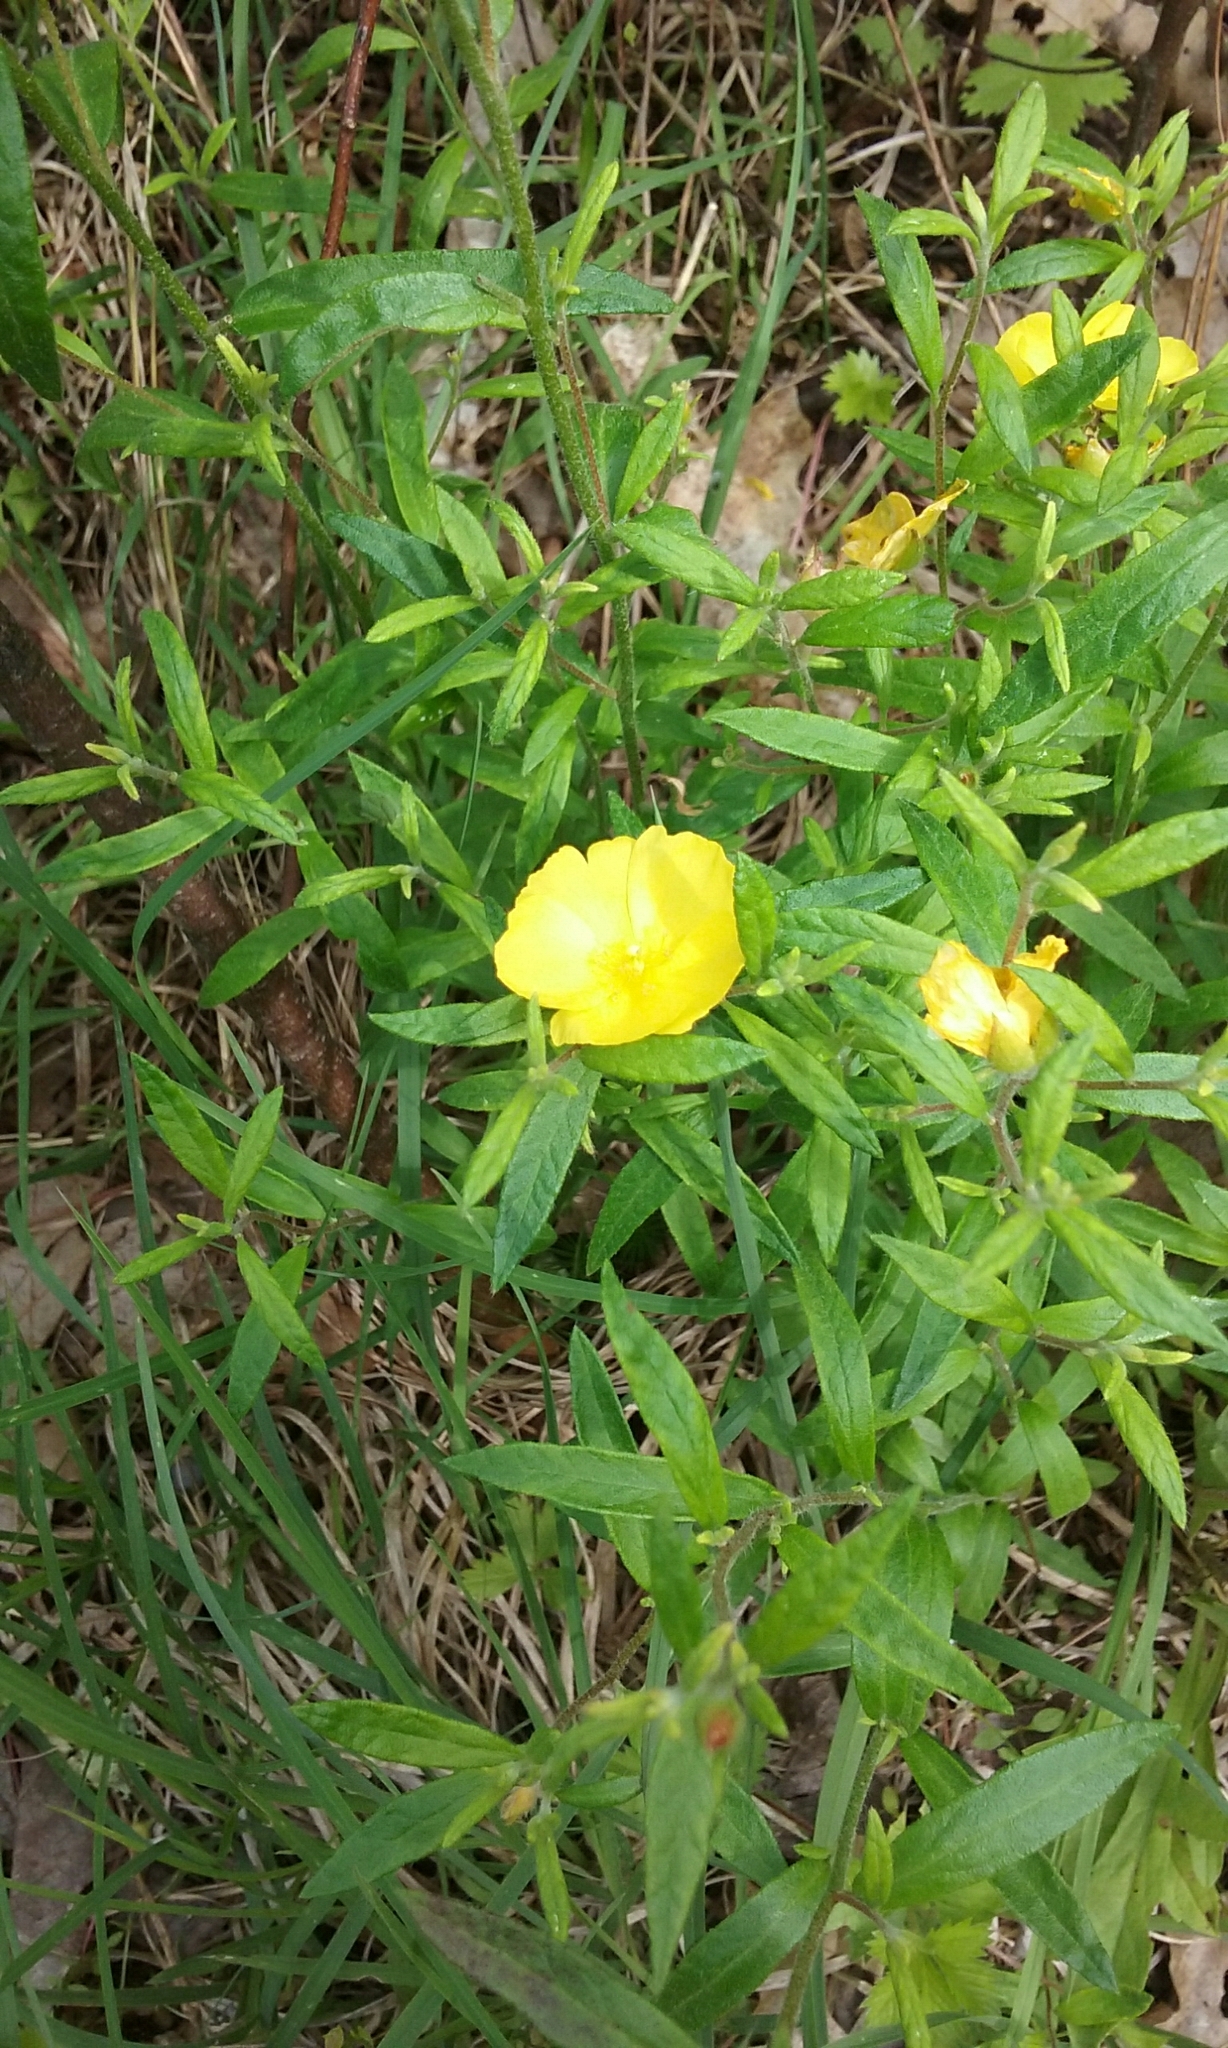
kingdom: Plantae
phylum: Tracheophyta
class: Magnoliopsida
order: Malvales
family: Cistaceae
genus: Crocanthemum
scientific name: Crocanthemum canadense
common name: Canada frostweed
